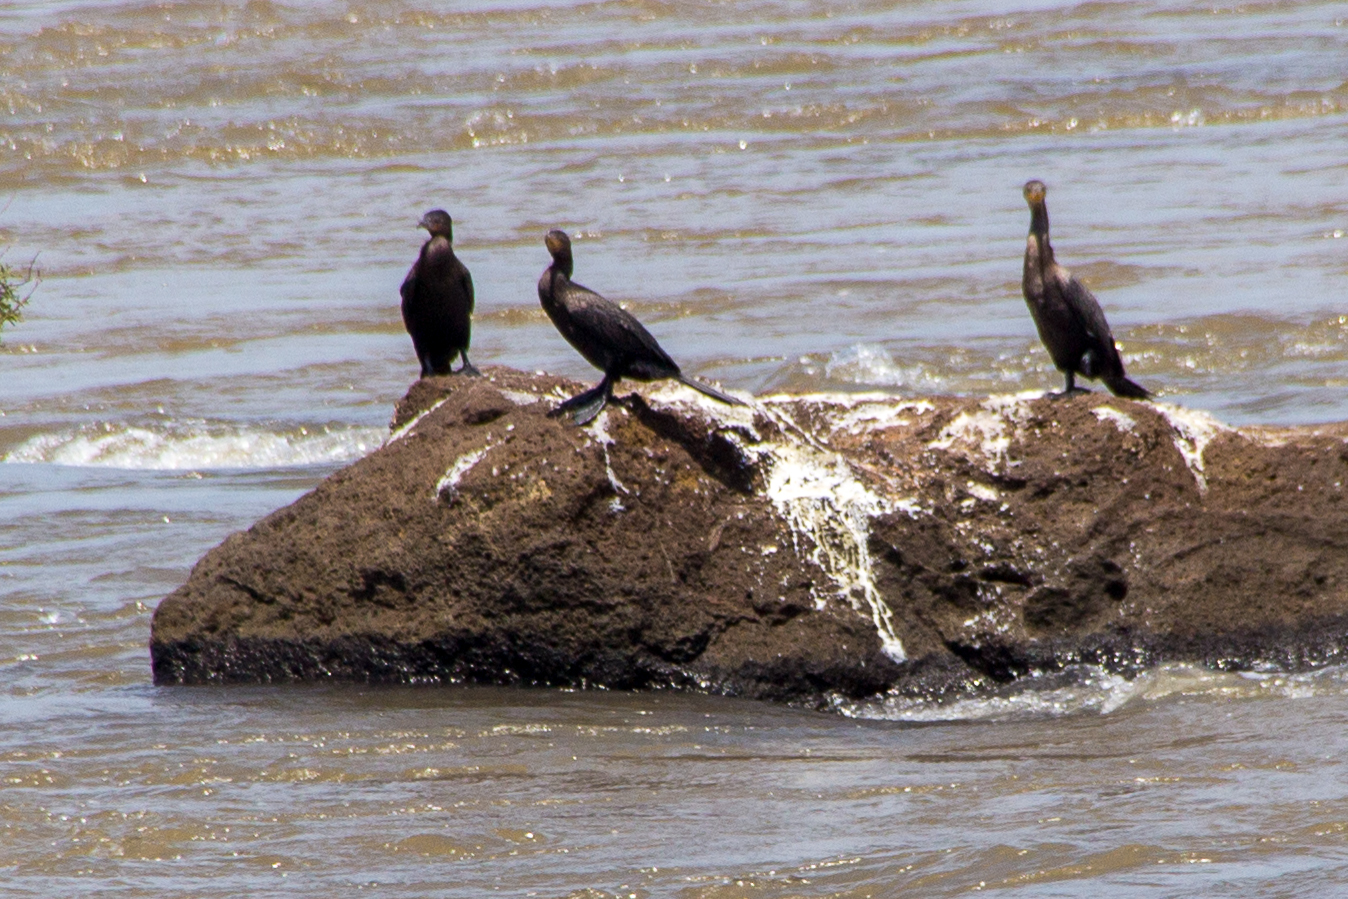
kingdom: Animalia
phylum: Chordata
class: Aves
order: Suliformes
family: Phalacrocoracidae
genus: Phalacrocorax
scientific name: Phalacrocorax brasilianus
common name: Neotropic cormorant
